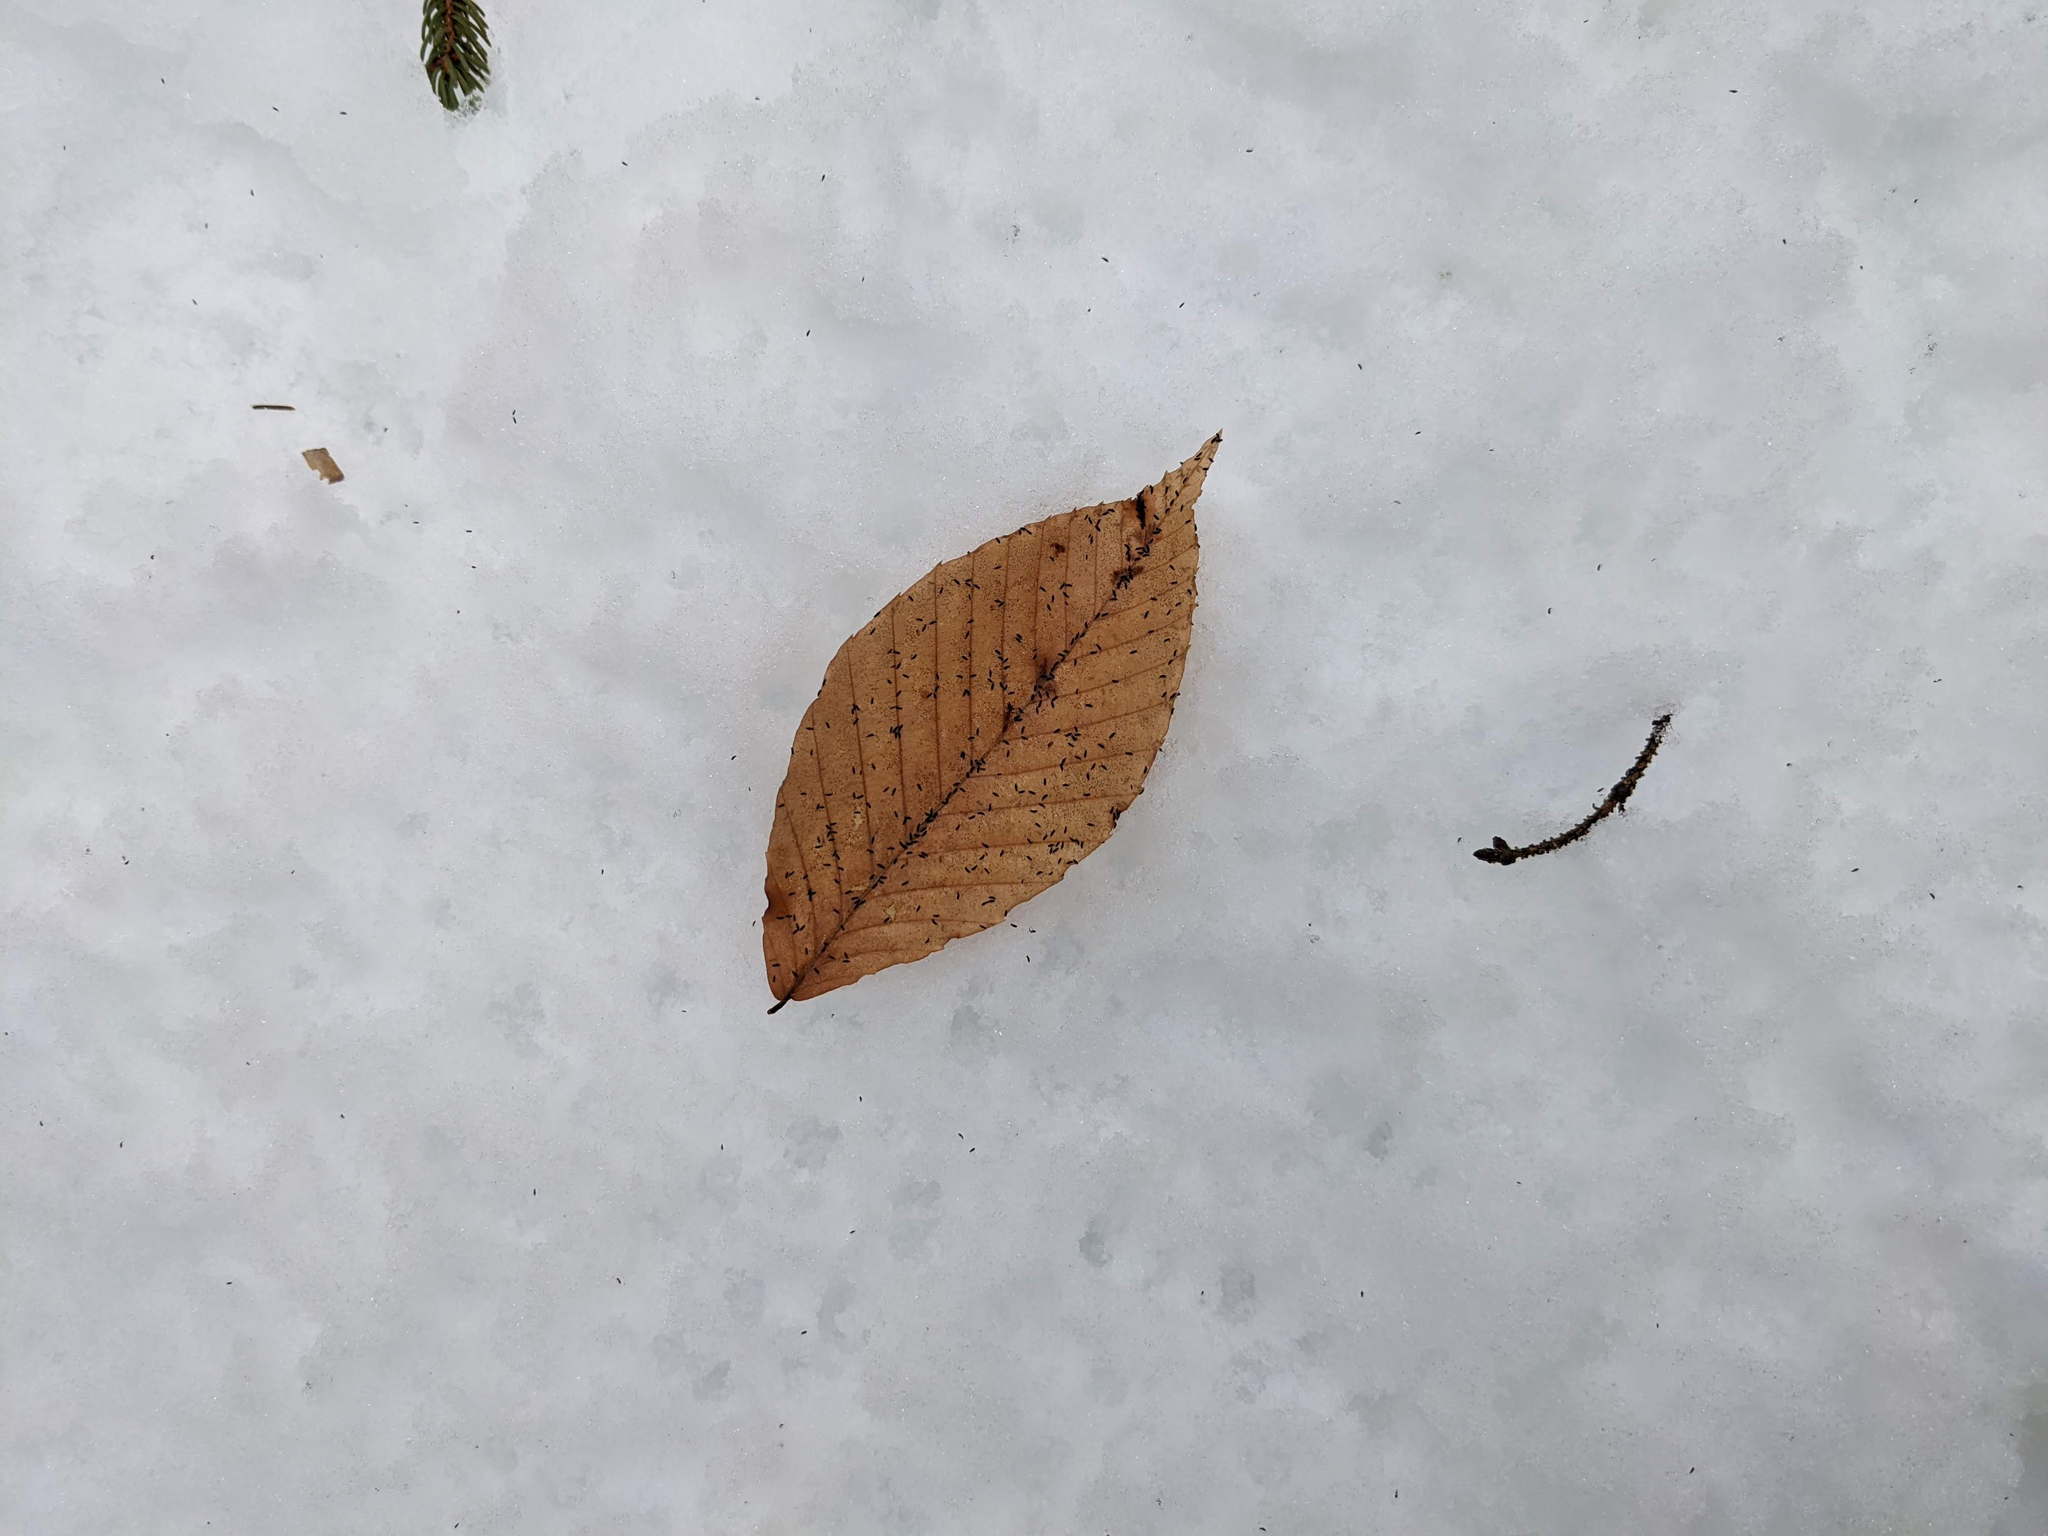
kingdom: Plantae
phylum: Tracheophyta
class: Magnoliopsida
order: Fagales
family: Fagaceae
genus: Fagus
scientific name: Fagus grandifolia
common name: American beech
